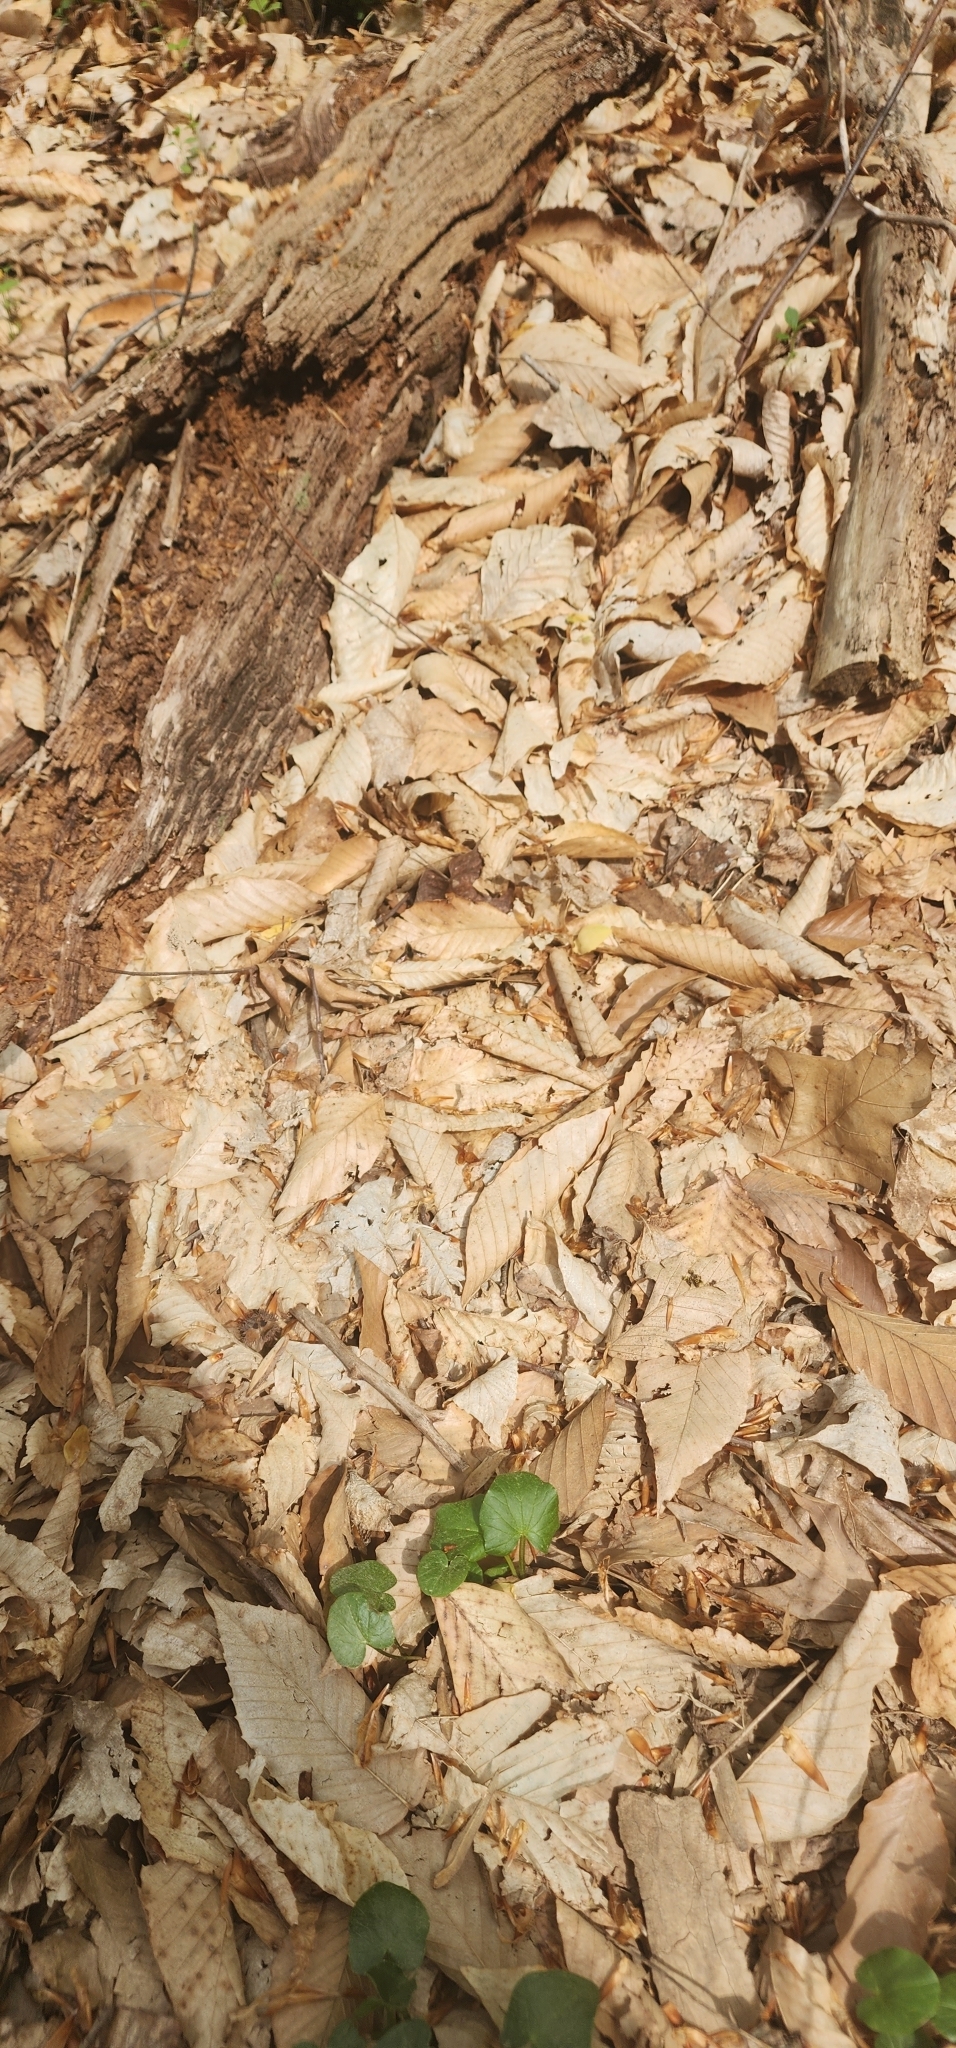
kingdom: Animalia
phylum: Arthropoda
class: Insecta
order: Diptera
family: Bombyliidae
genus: Bombylius
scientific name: Bombylius major
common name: Bee fly
